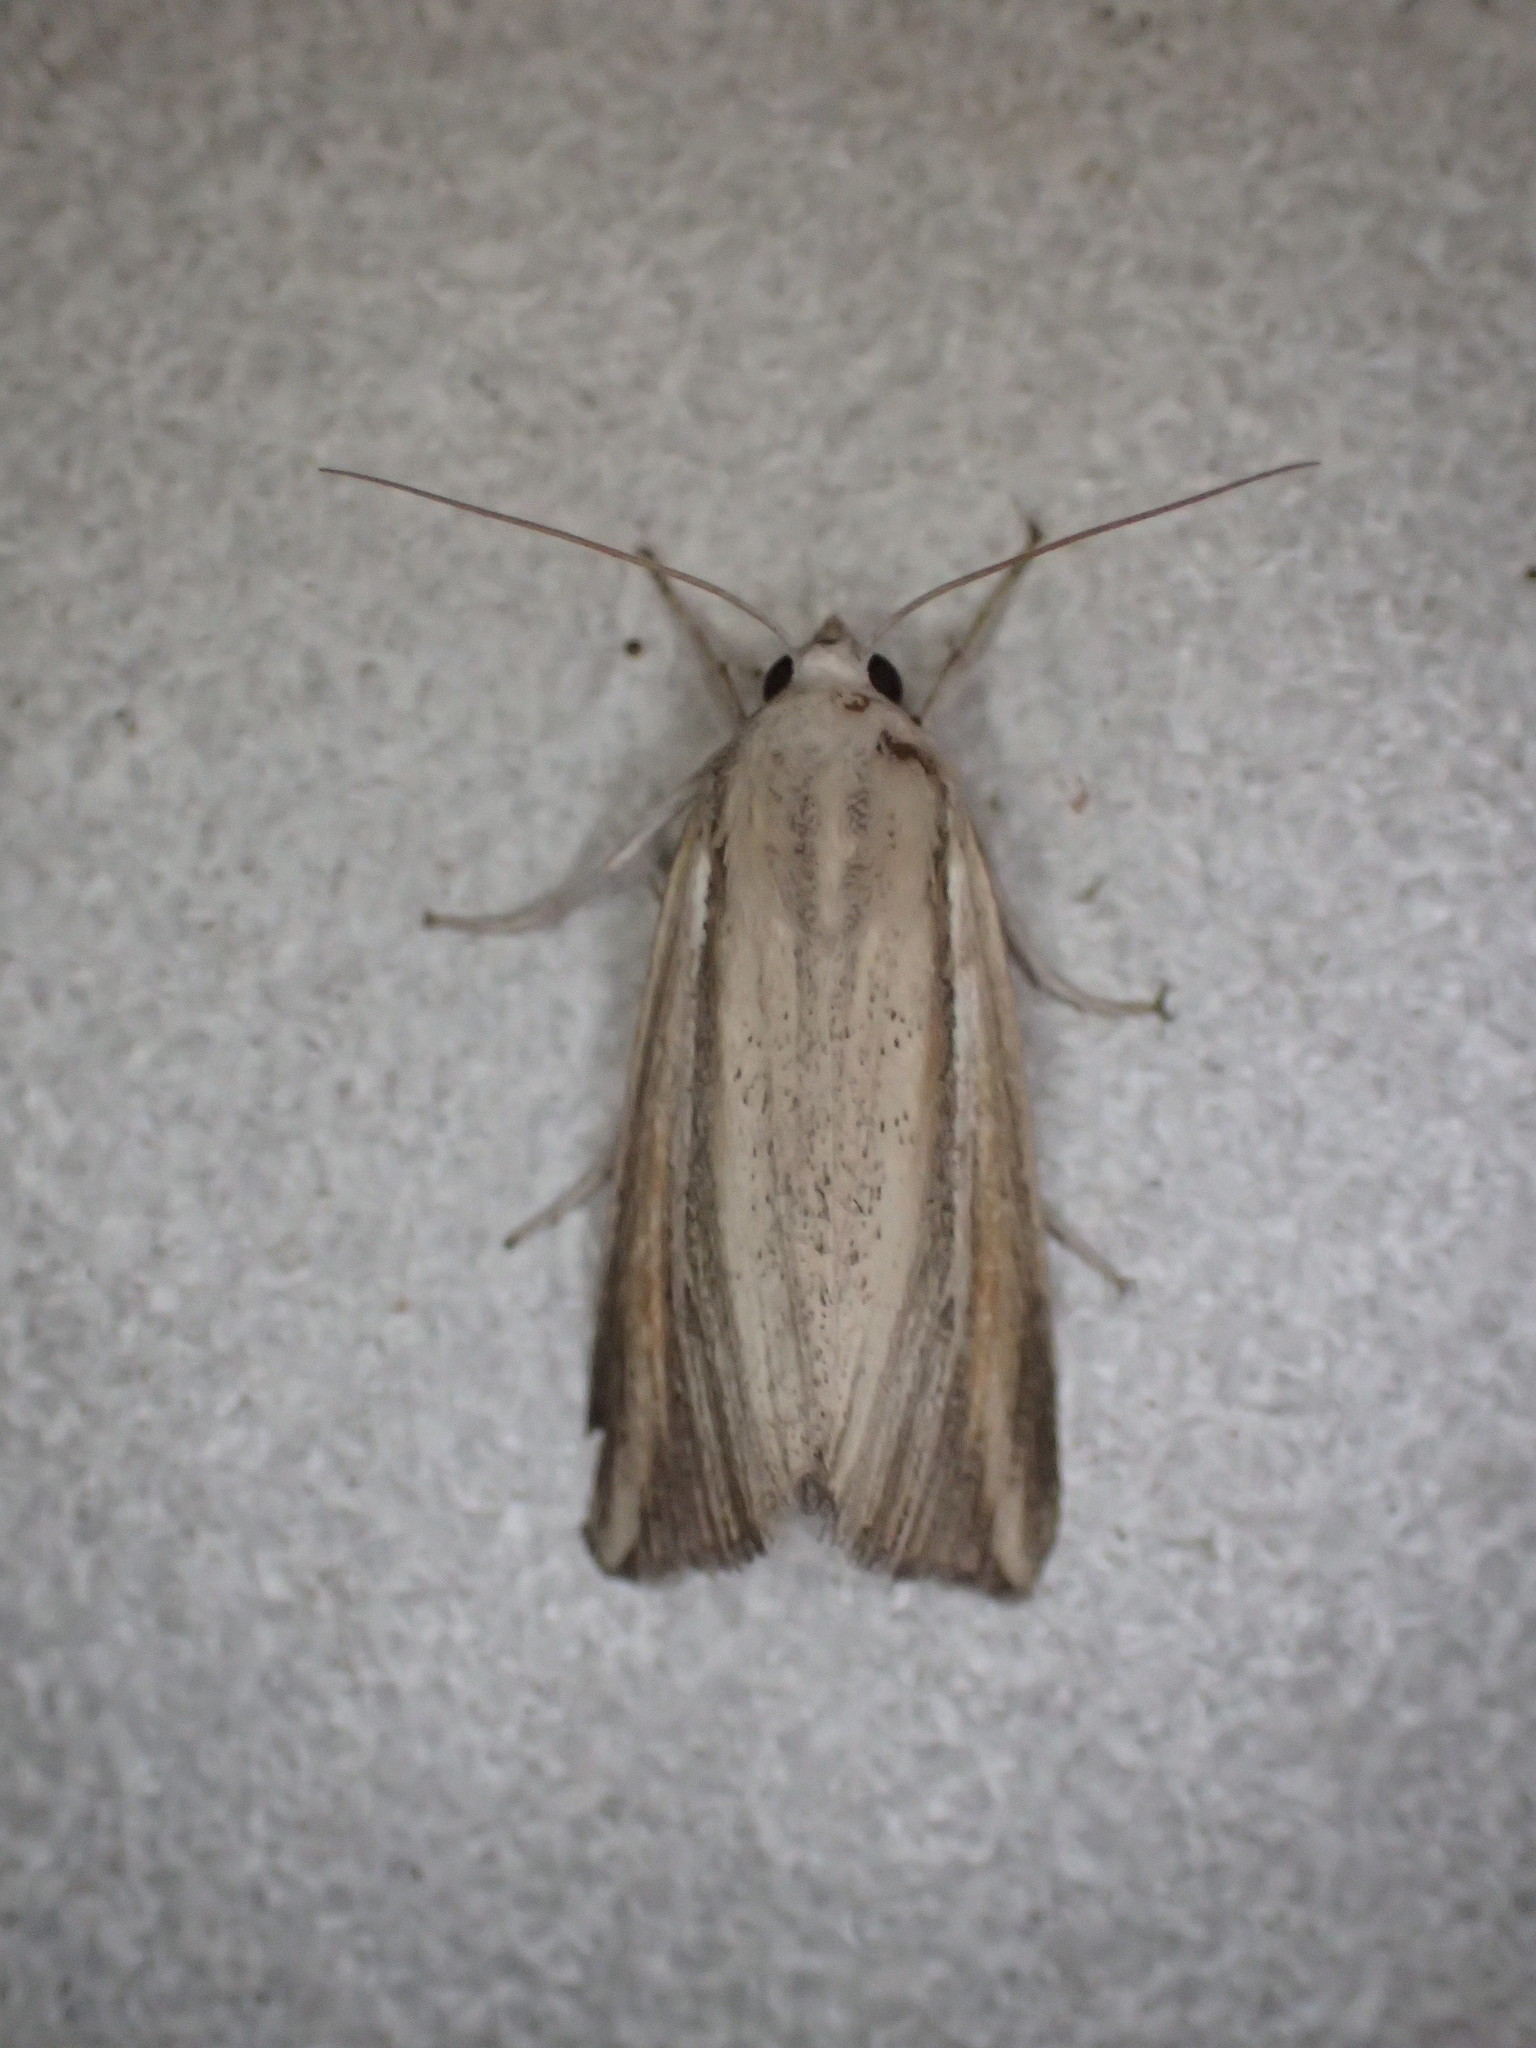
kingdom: Animalia
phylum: Arthropoda
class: Insecta
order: Lepidoptera
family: Noctuidae
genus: Leucania
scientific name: Leucania cruegeri
